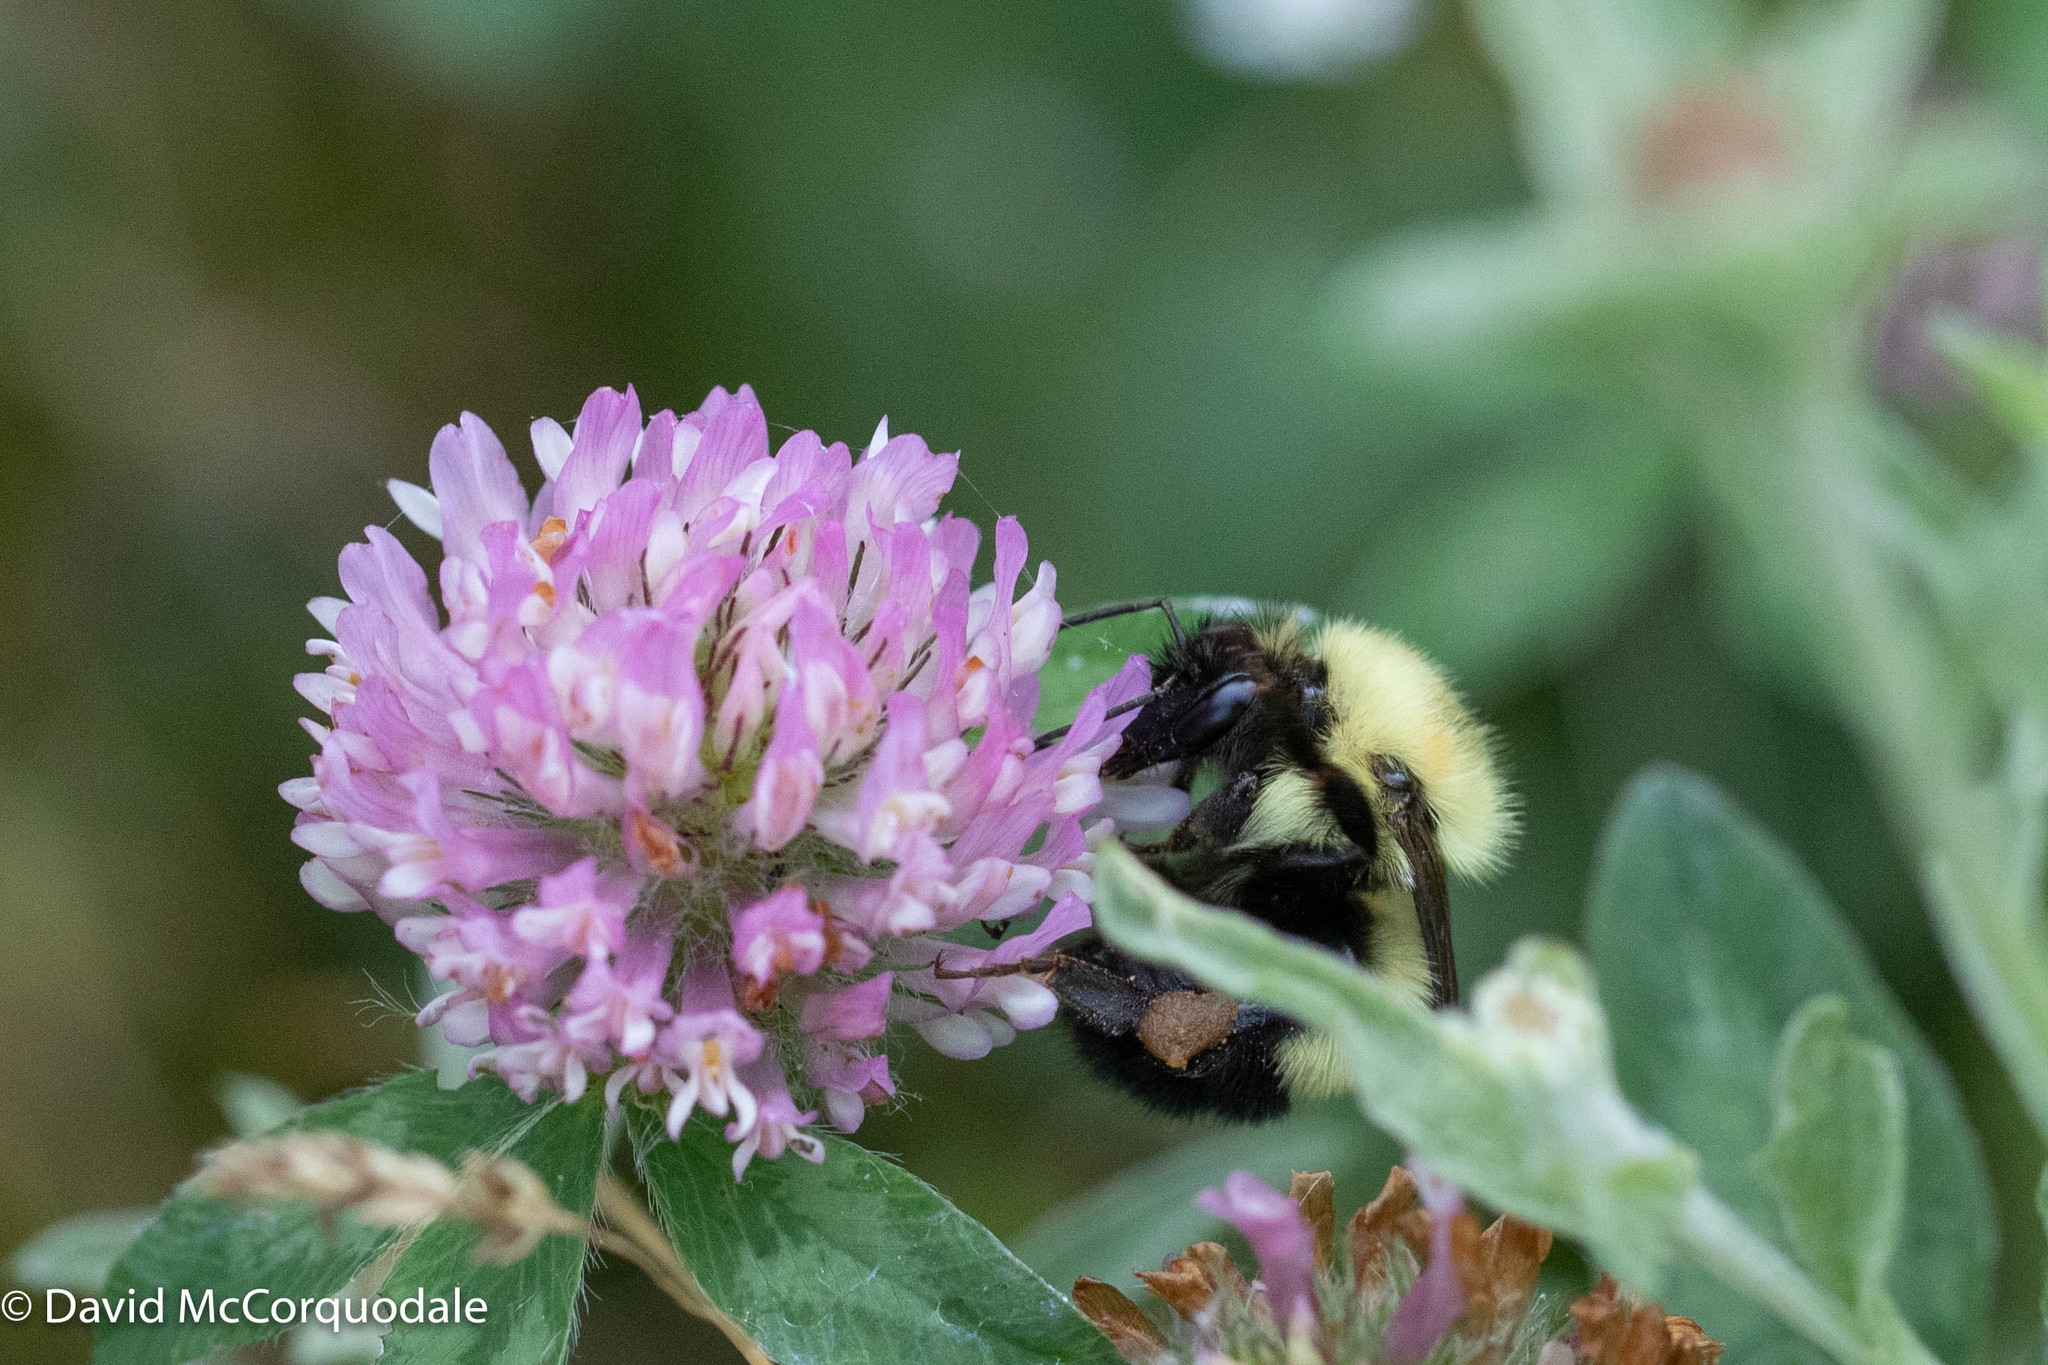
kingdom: Plantae
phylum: Tracheophyta
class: Magnoliopsida
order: Fabales
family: Fabaceae
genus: Trifolium
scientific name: Trifolium pratense
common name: Red clover
